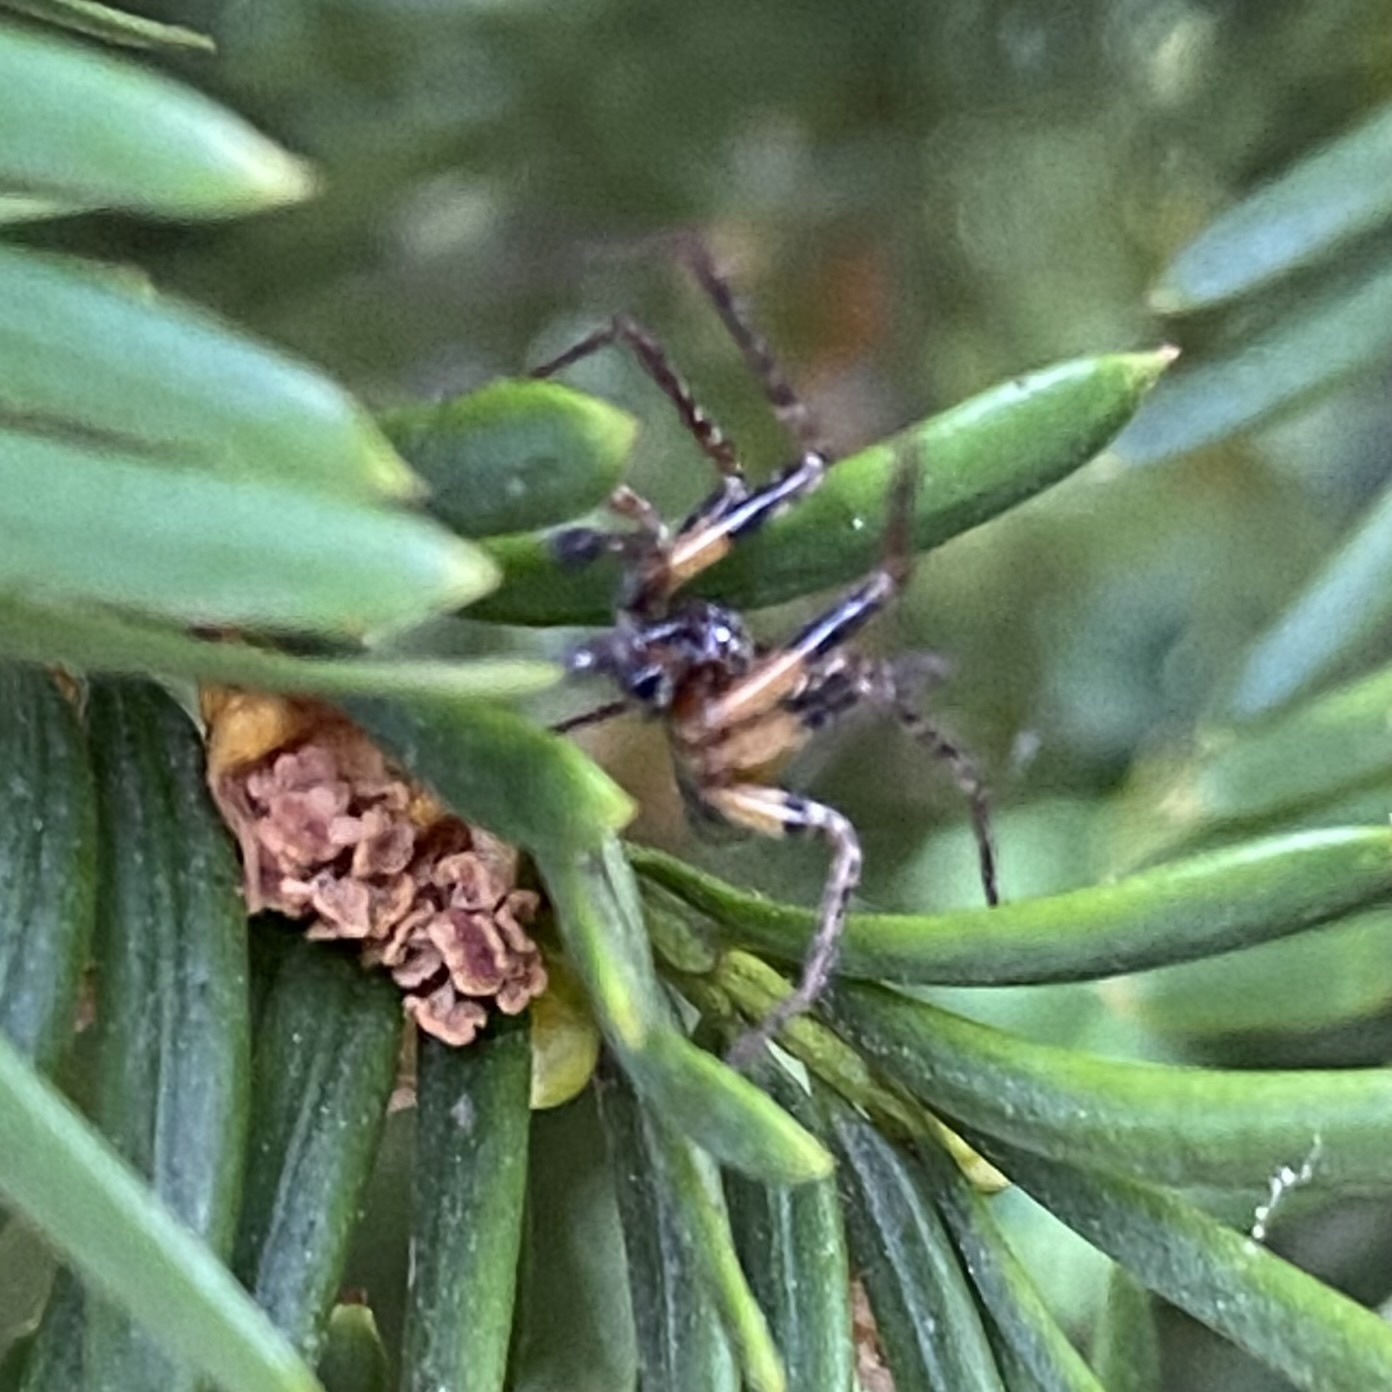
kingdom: Animalia
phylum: Arthropoda
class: Arachnida
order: Araneae
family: Anyphaenidae
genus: Anyphaena
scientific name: Anyphaena accentuata
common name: Buzzing spider
